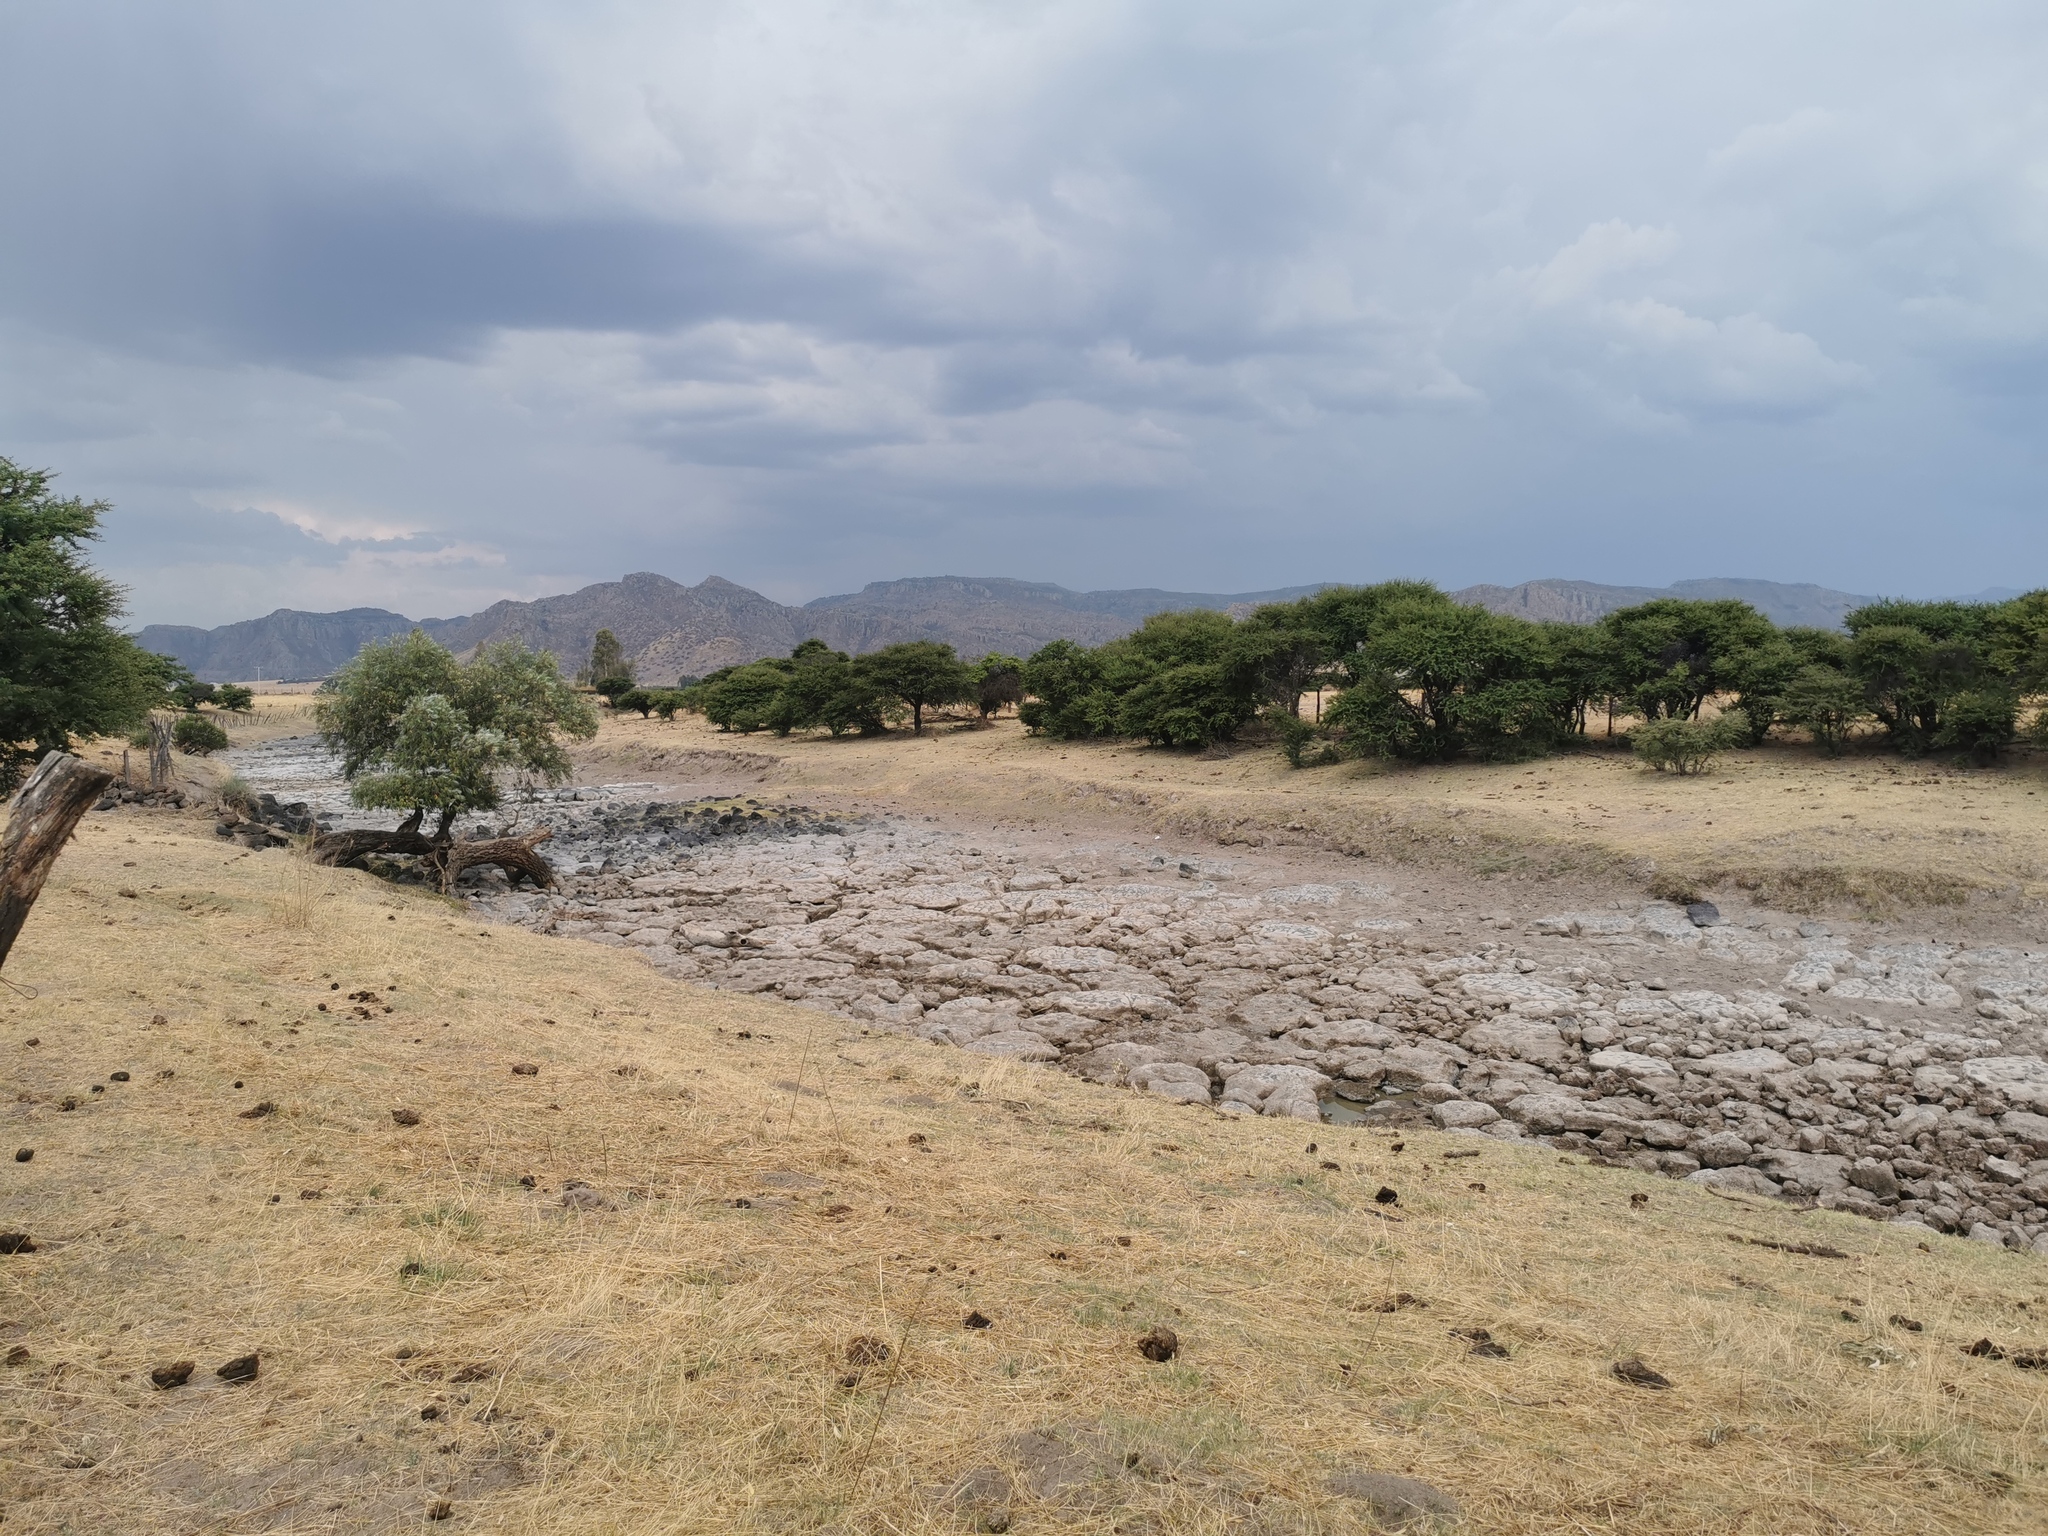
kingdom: Plantae
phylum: Tracheophyta
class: Magnoliopsida
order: Fabales
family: Fabaceae
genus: Vachellia
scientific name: Vachellia schaffneri
